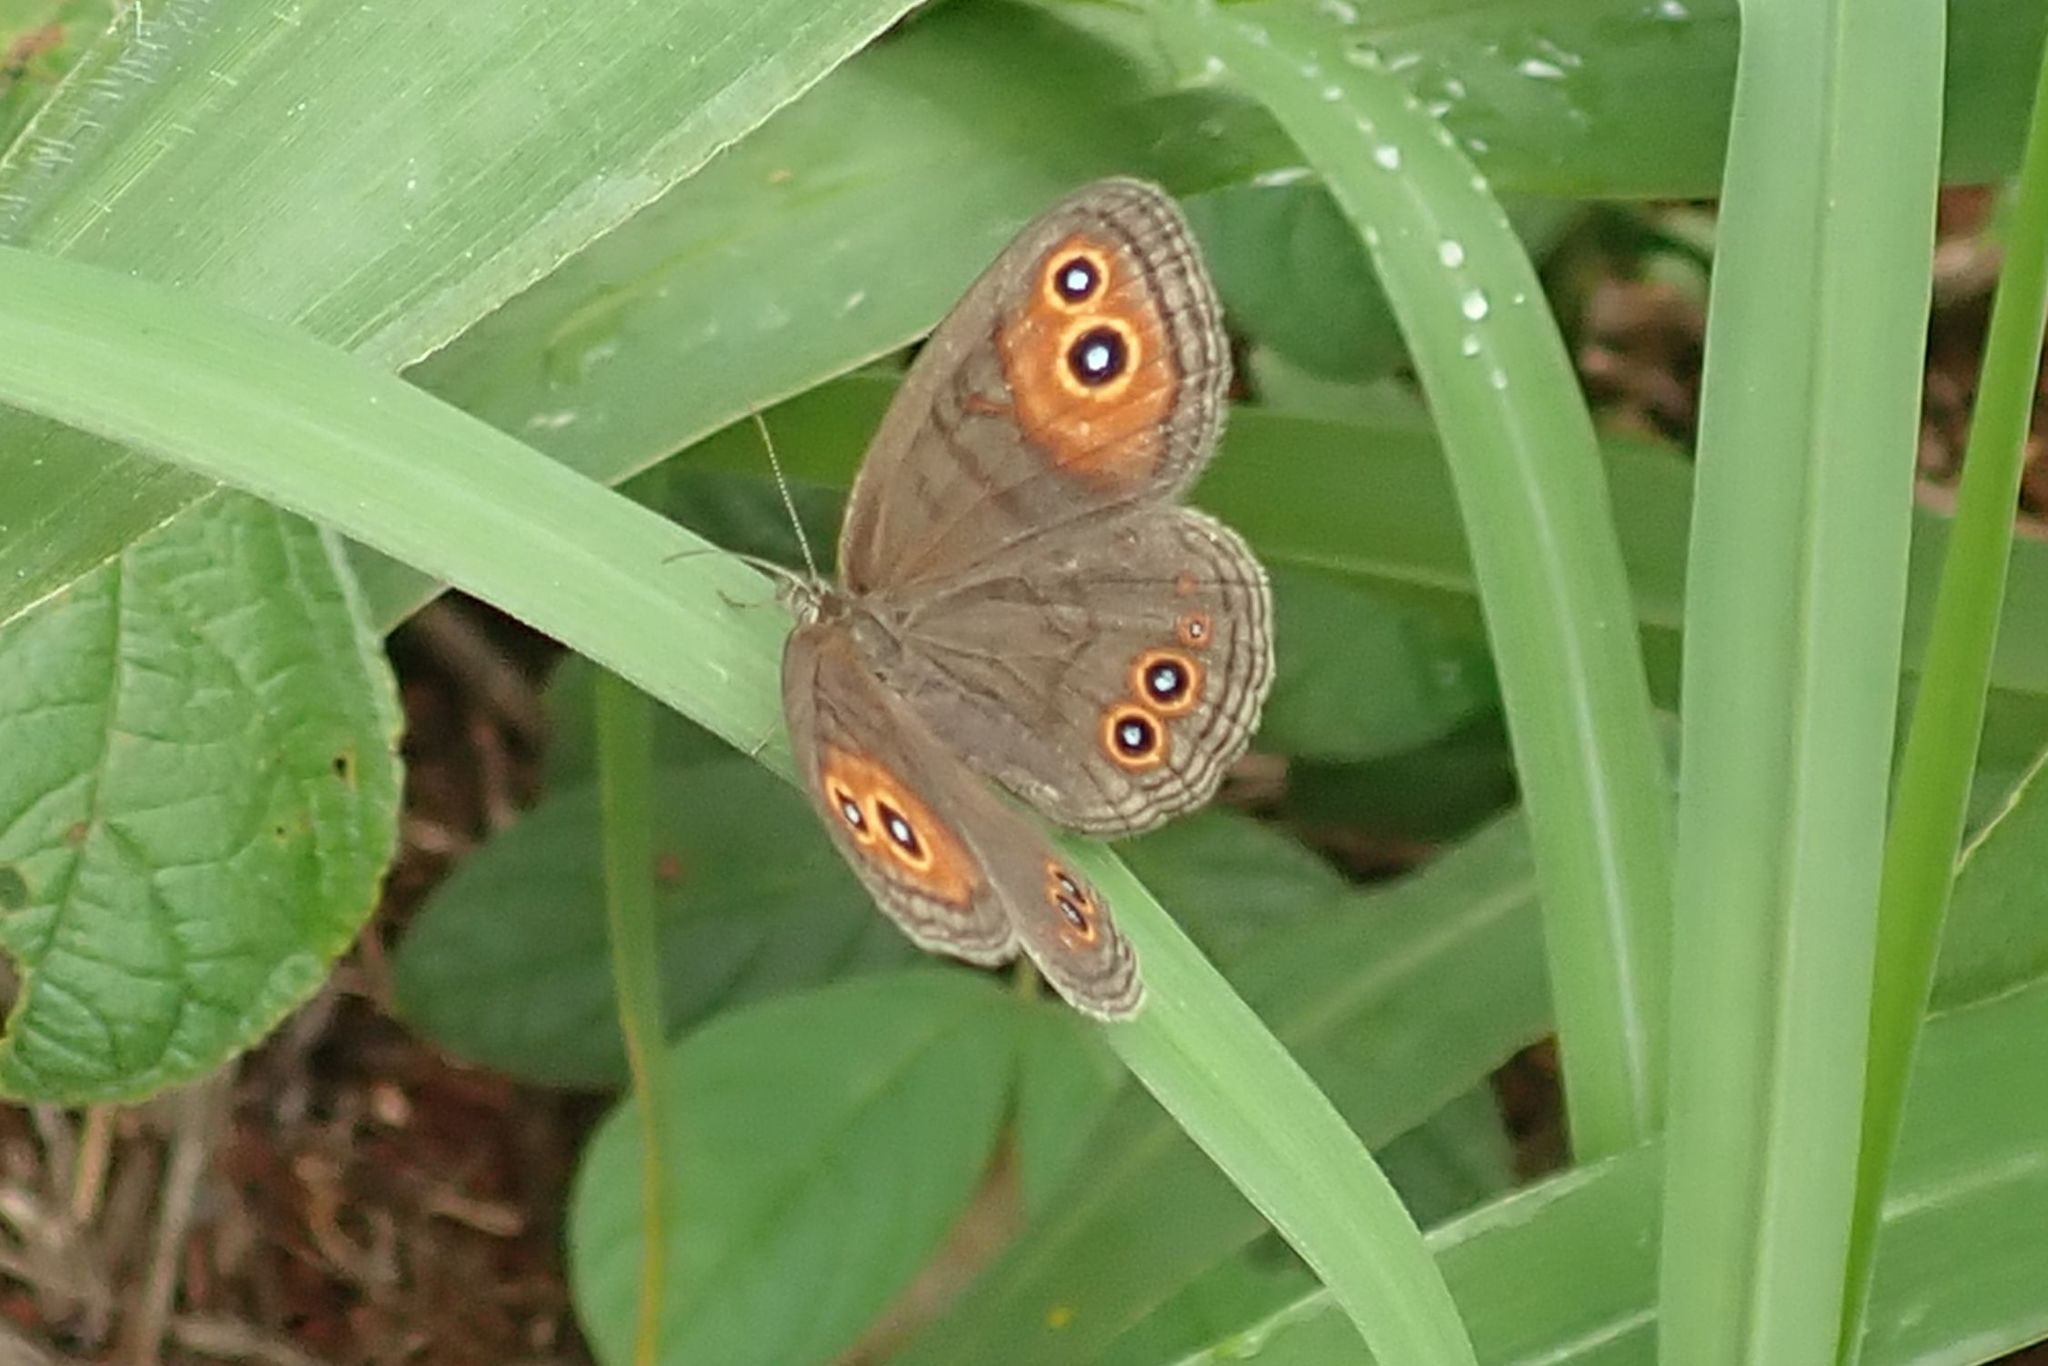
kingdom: Animalia
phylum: Arthropoda
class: Insecta
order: Lepidoptera
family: Nymphalidae
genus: Coenyra
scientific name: Coenyra hebe
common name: Zulu shadefly
